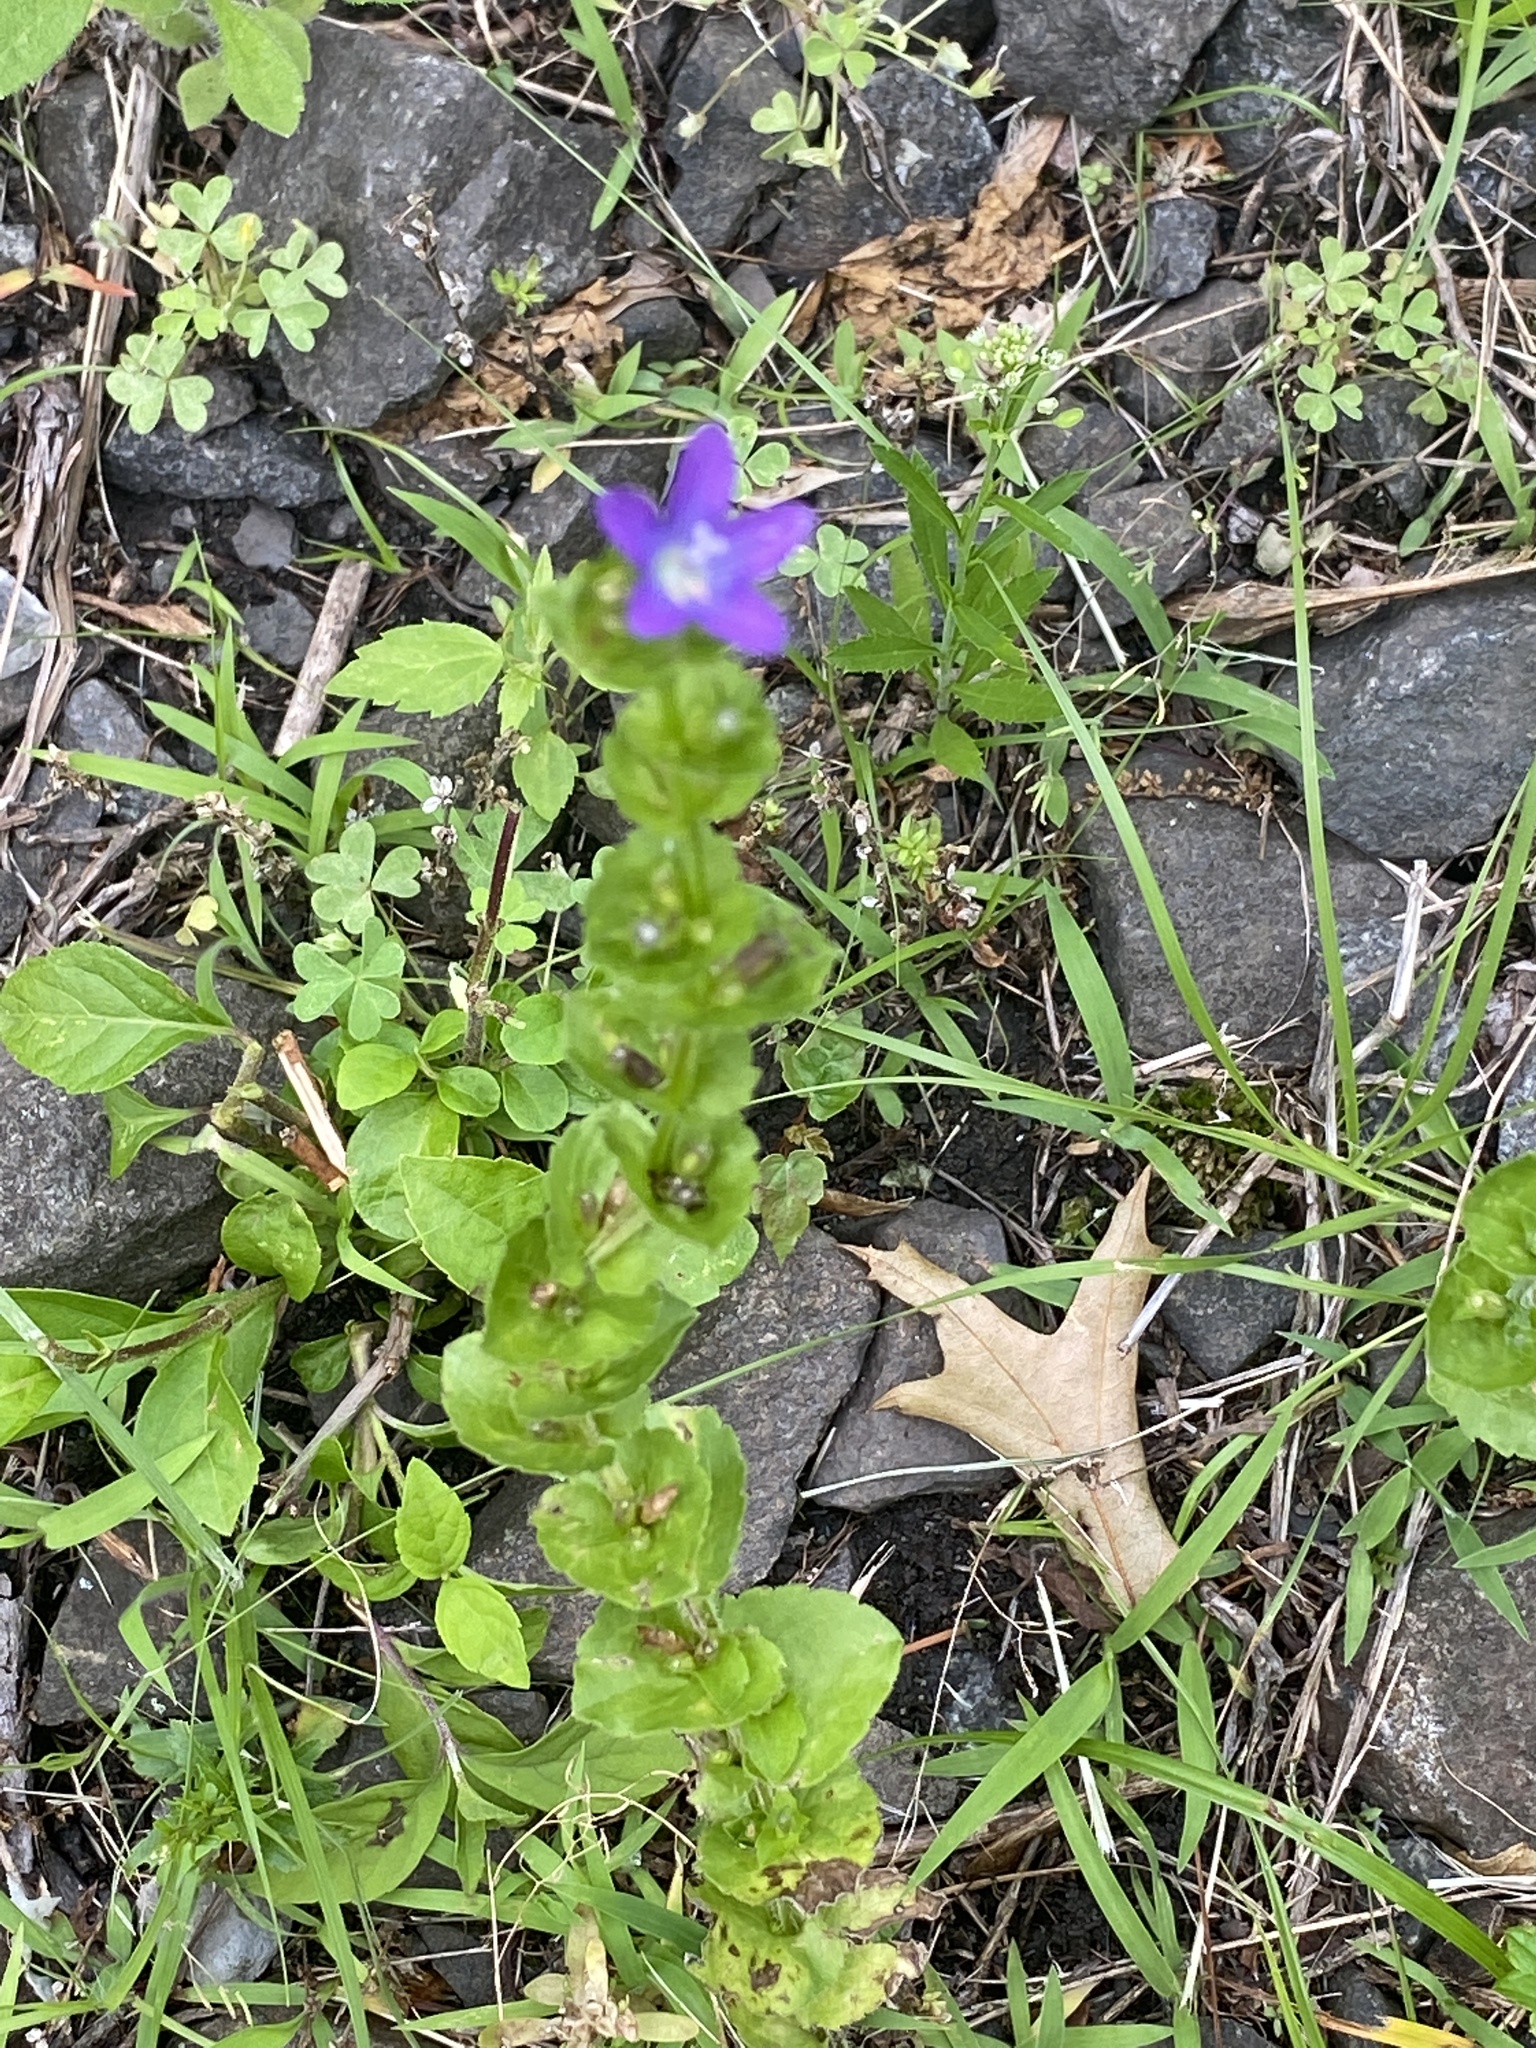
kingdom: Plantae
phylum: Tracheophyta
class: Magnoliopsida
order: Asterales
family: Campanulaceae
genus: Triodanis
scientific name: Triodanis perfoliata
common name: Clasping venus' looking-glass
